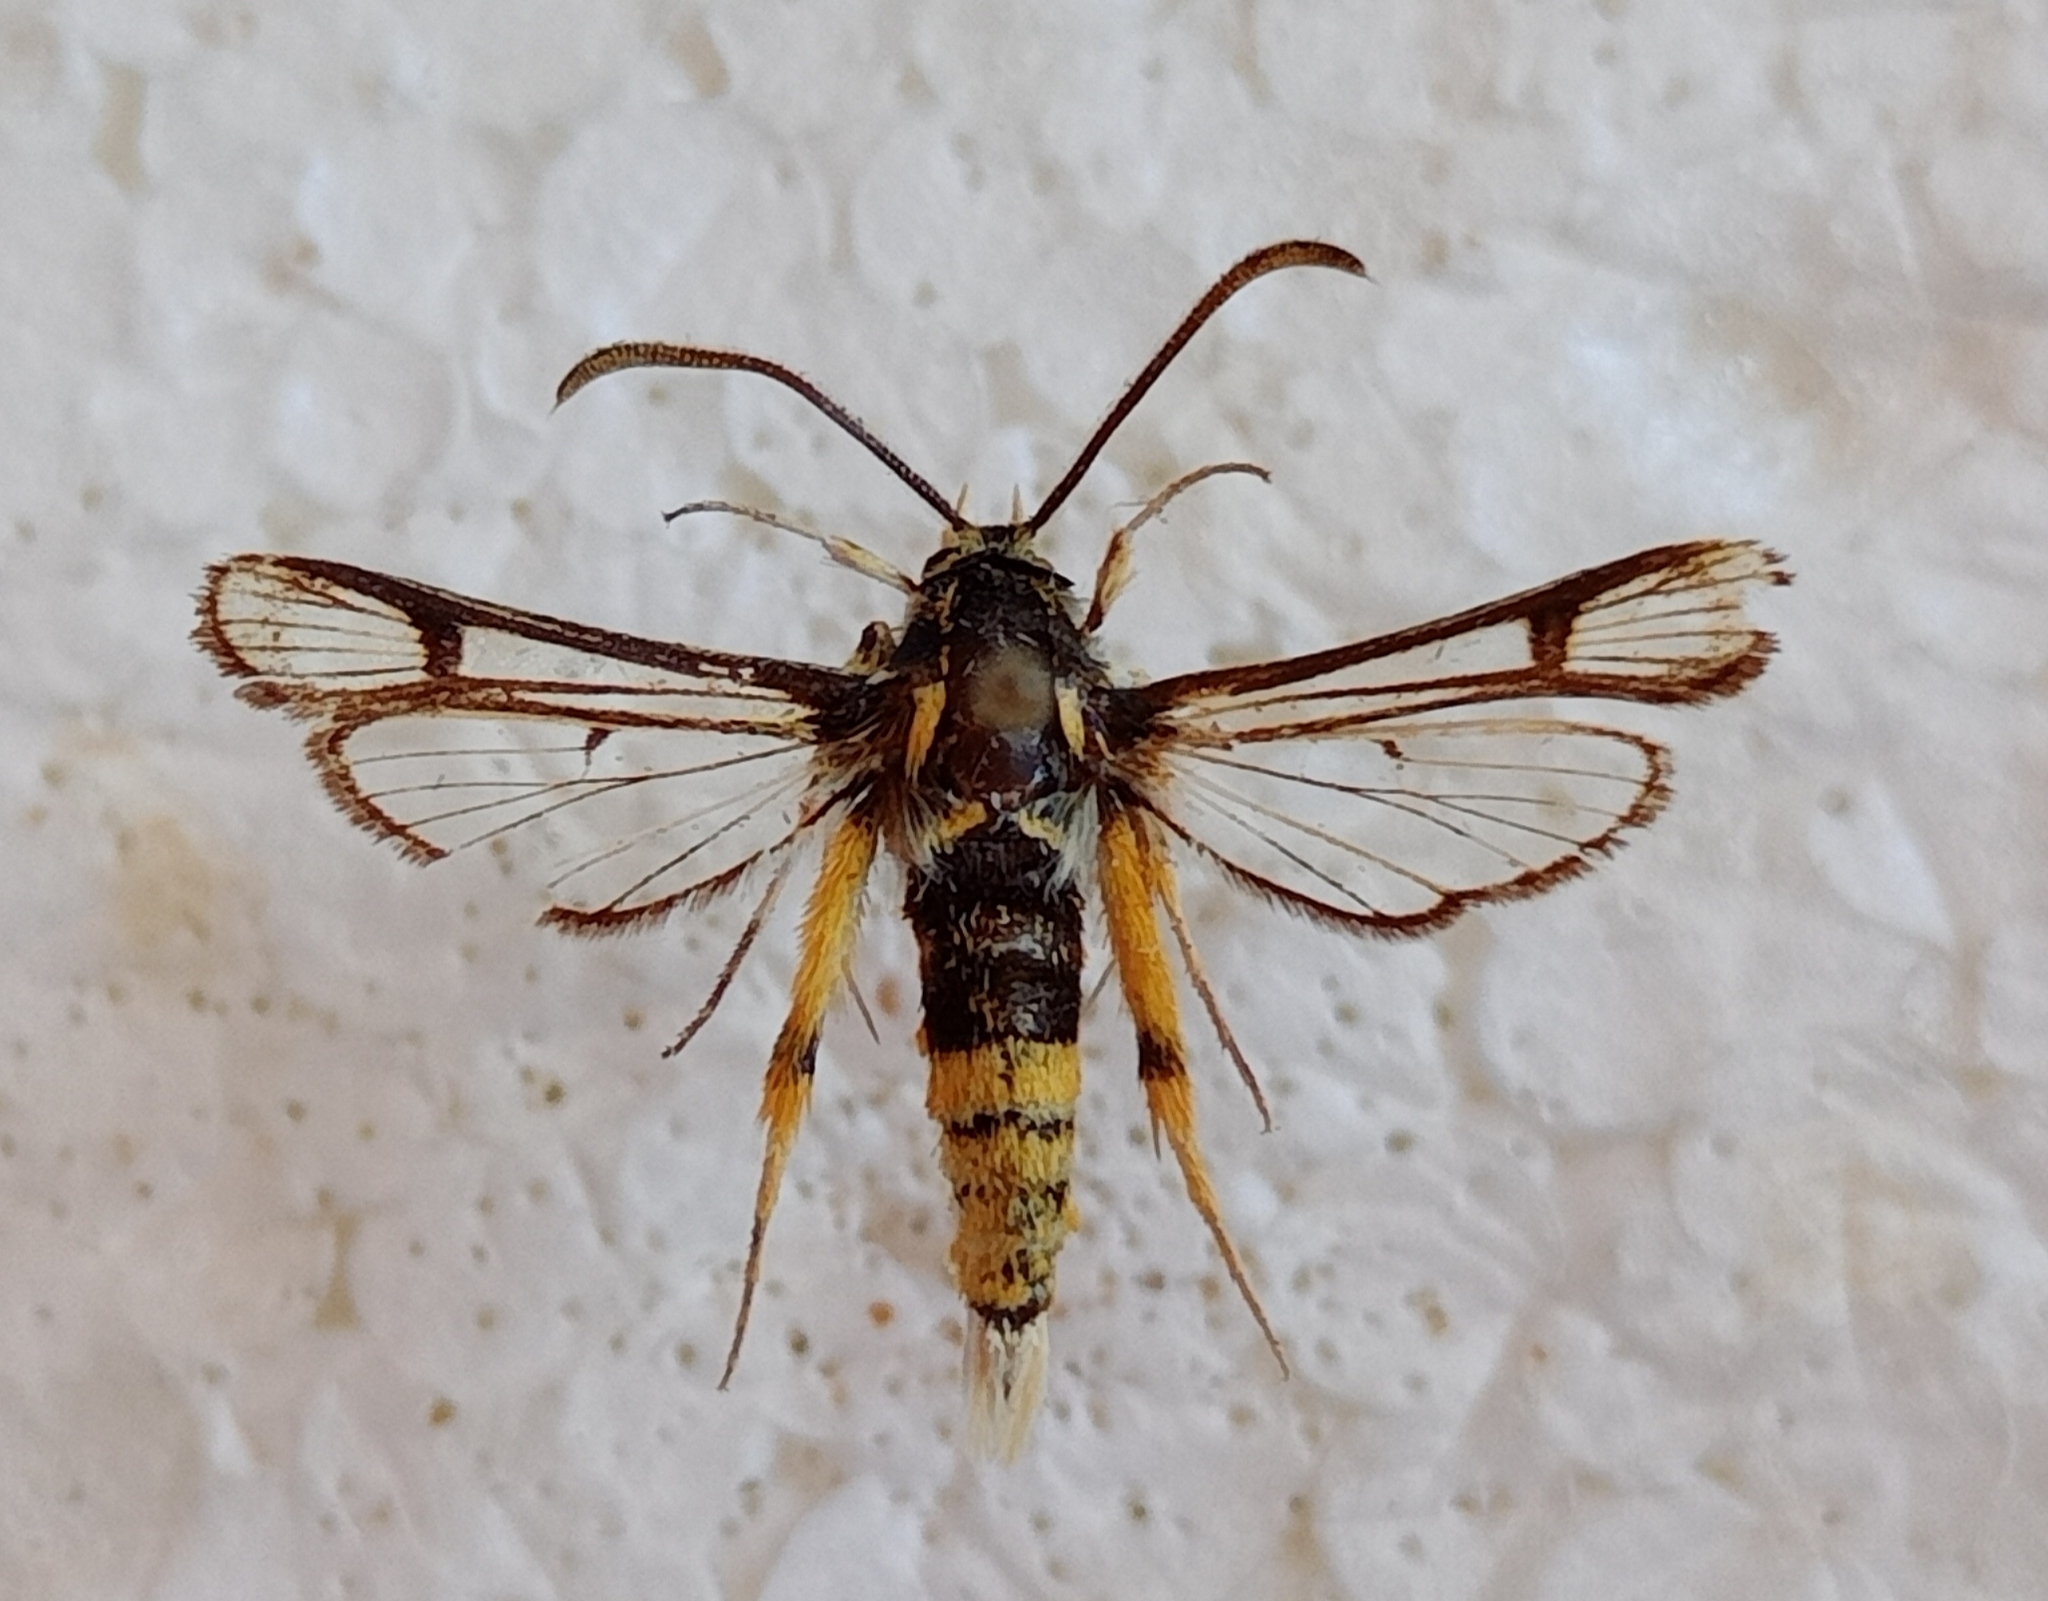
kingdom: Animalia
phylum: Arthropoda
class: Insecta
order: Lepidoptera
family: Sesiidae
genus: Chamaesphecia
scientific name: Chamaesphecia masariformis
